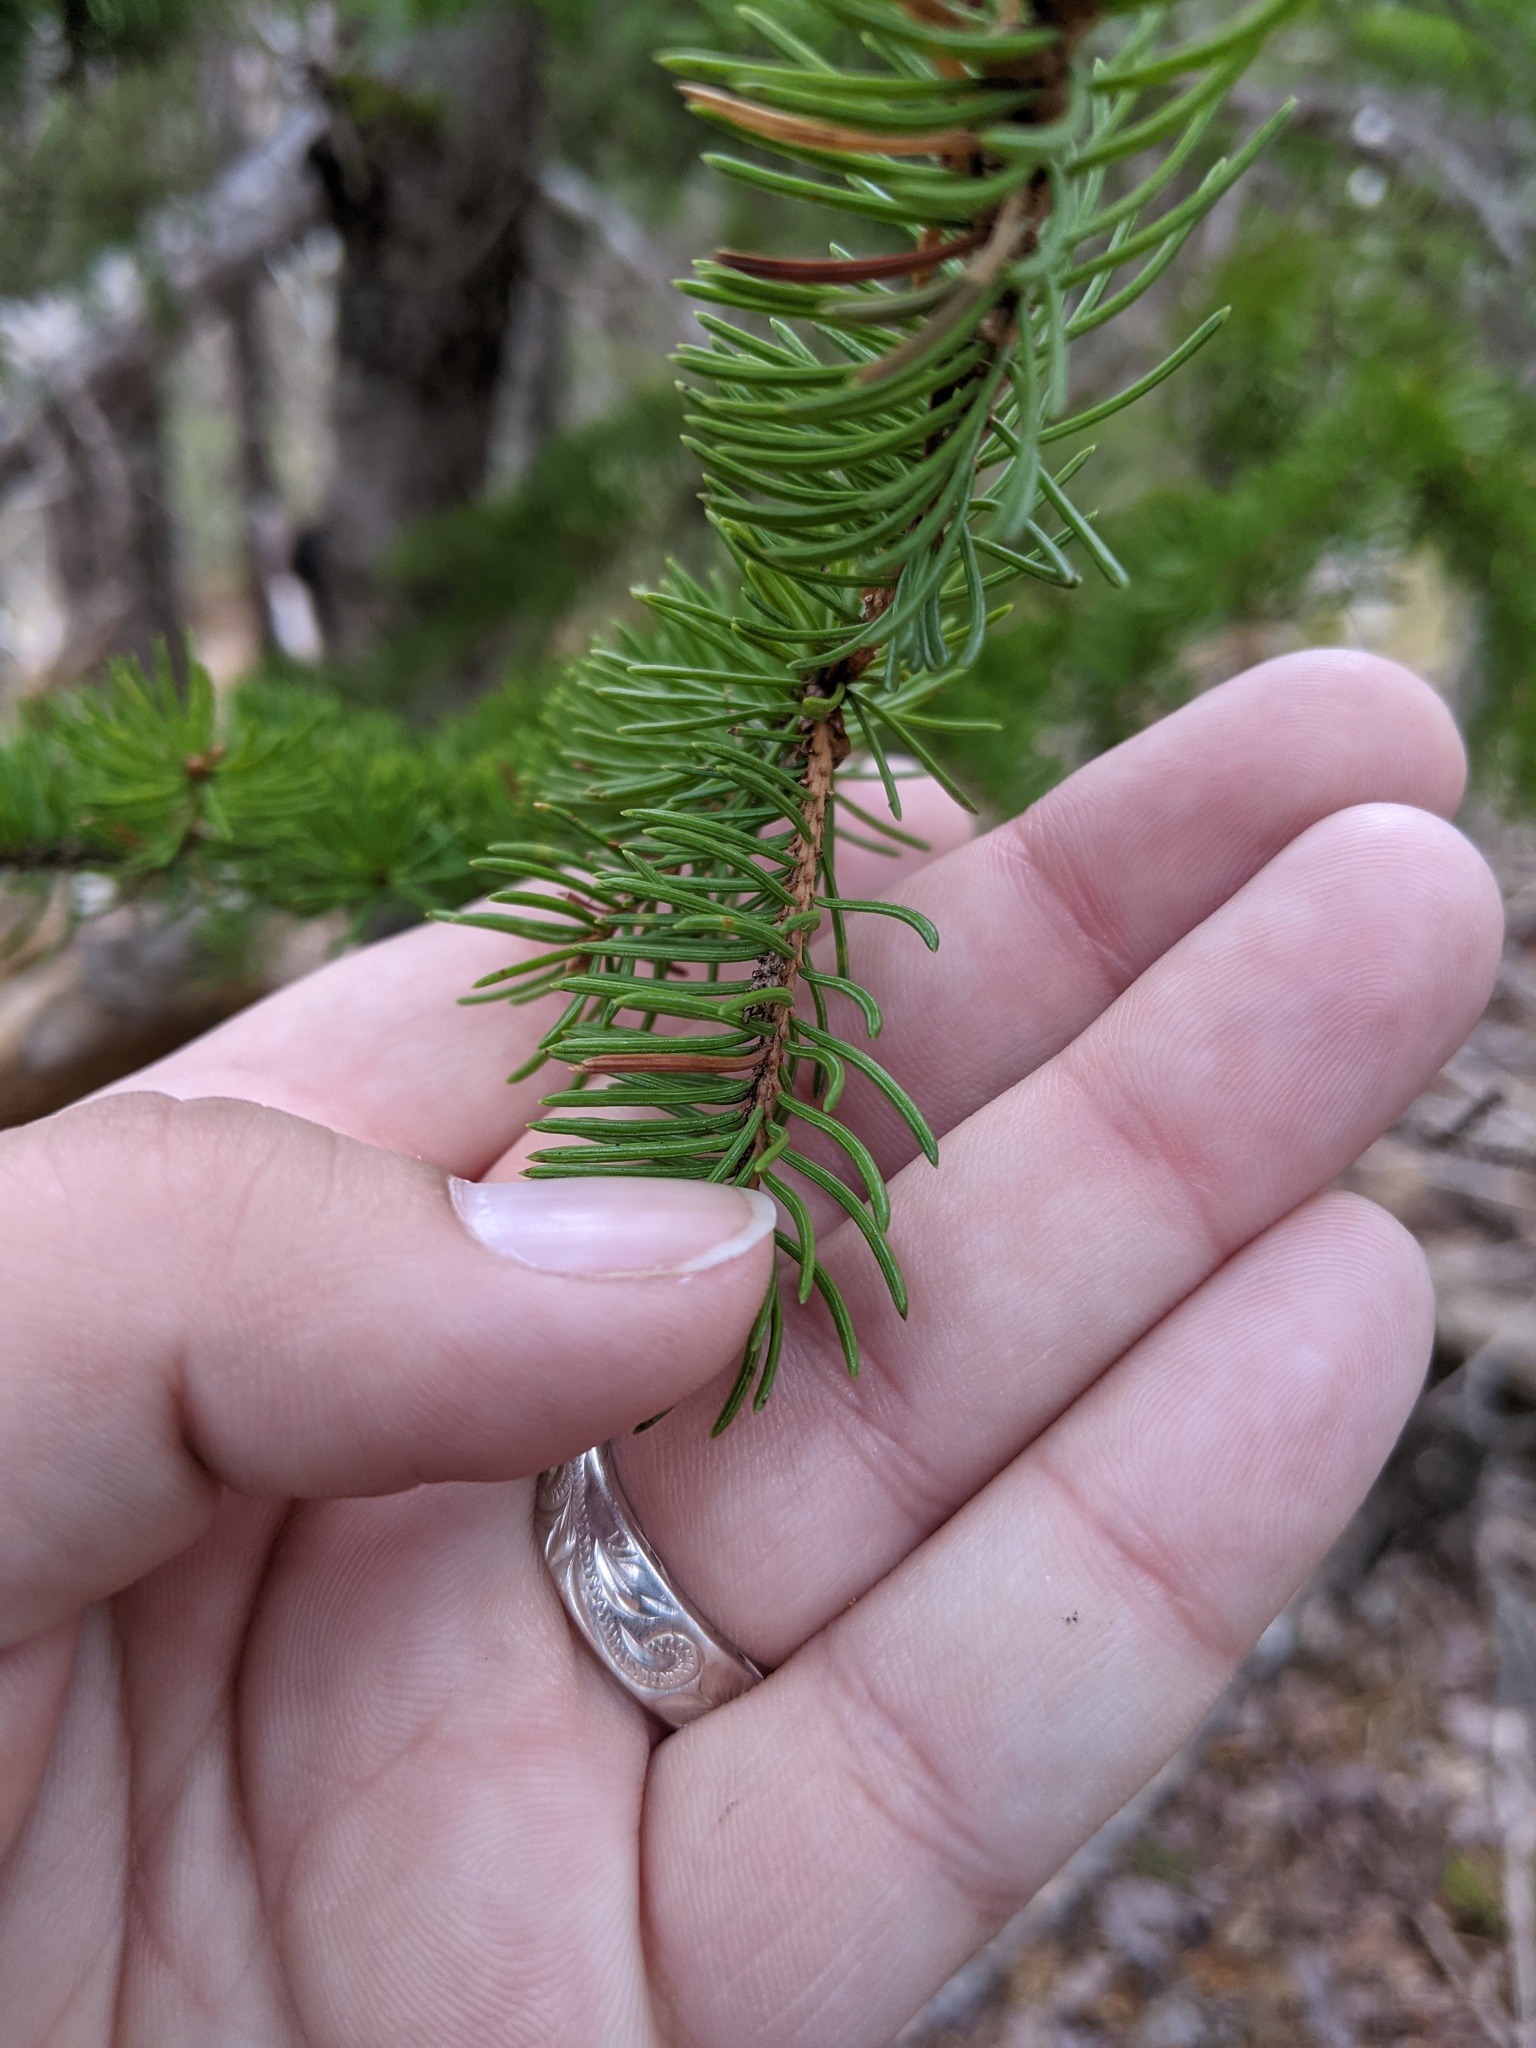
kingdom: Plantae
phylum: Tracheophyta
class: Pinopsida
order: Pinales
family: Pinaceae
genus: Picea
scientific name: Picea glauca
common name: White spruce
